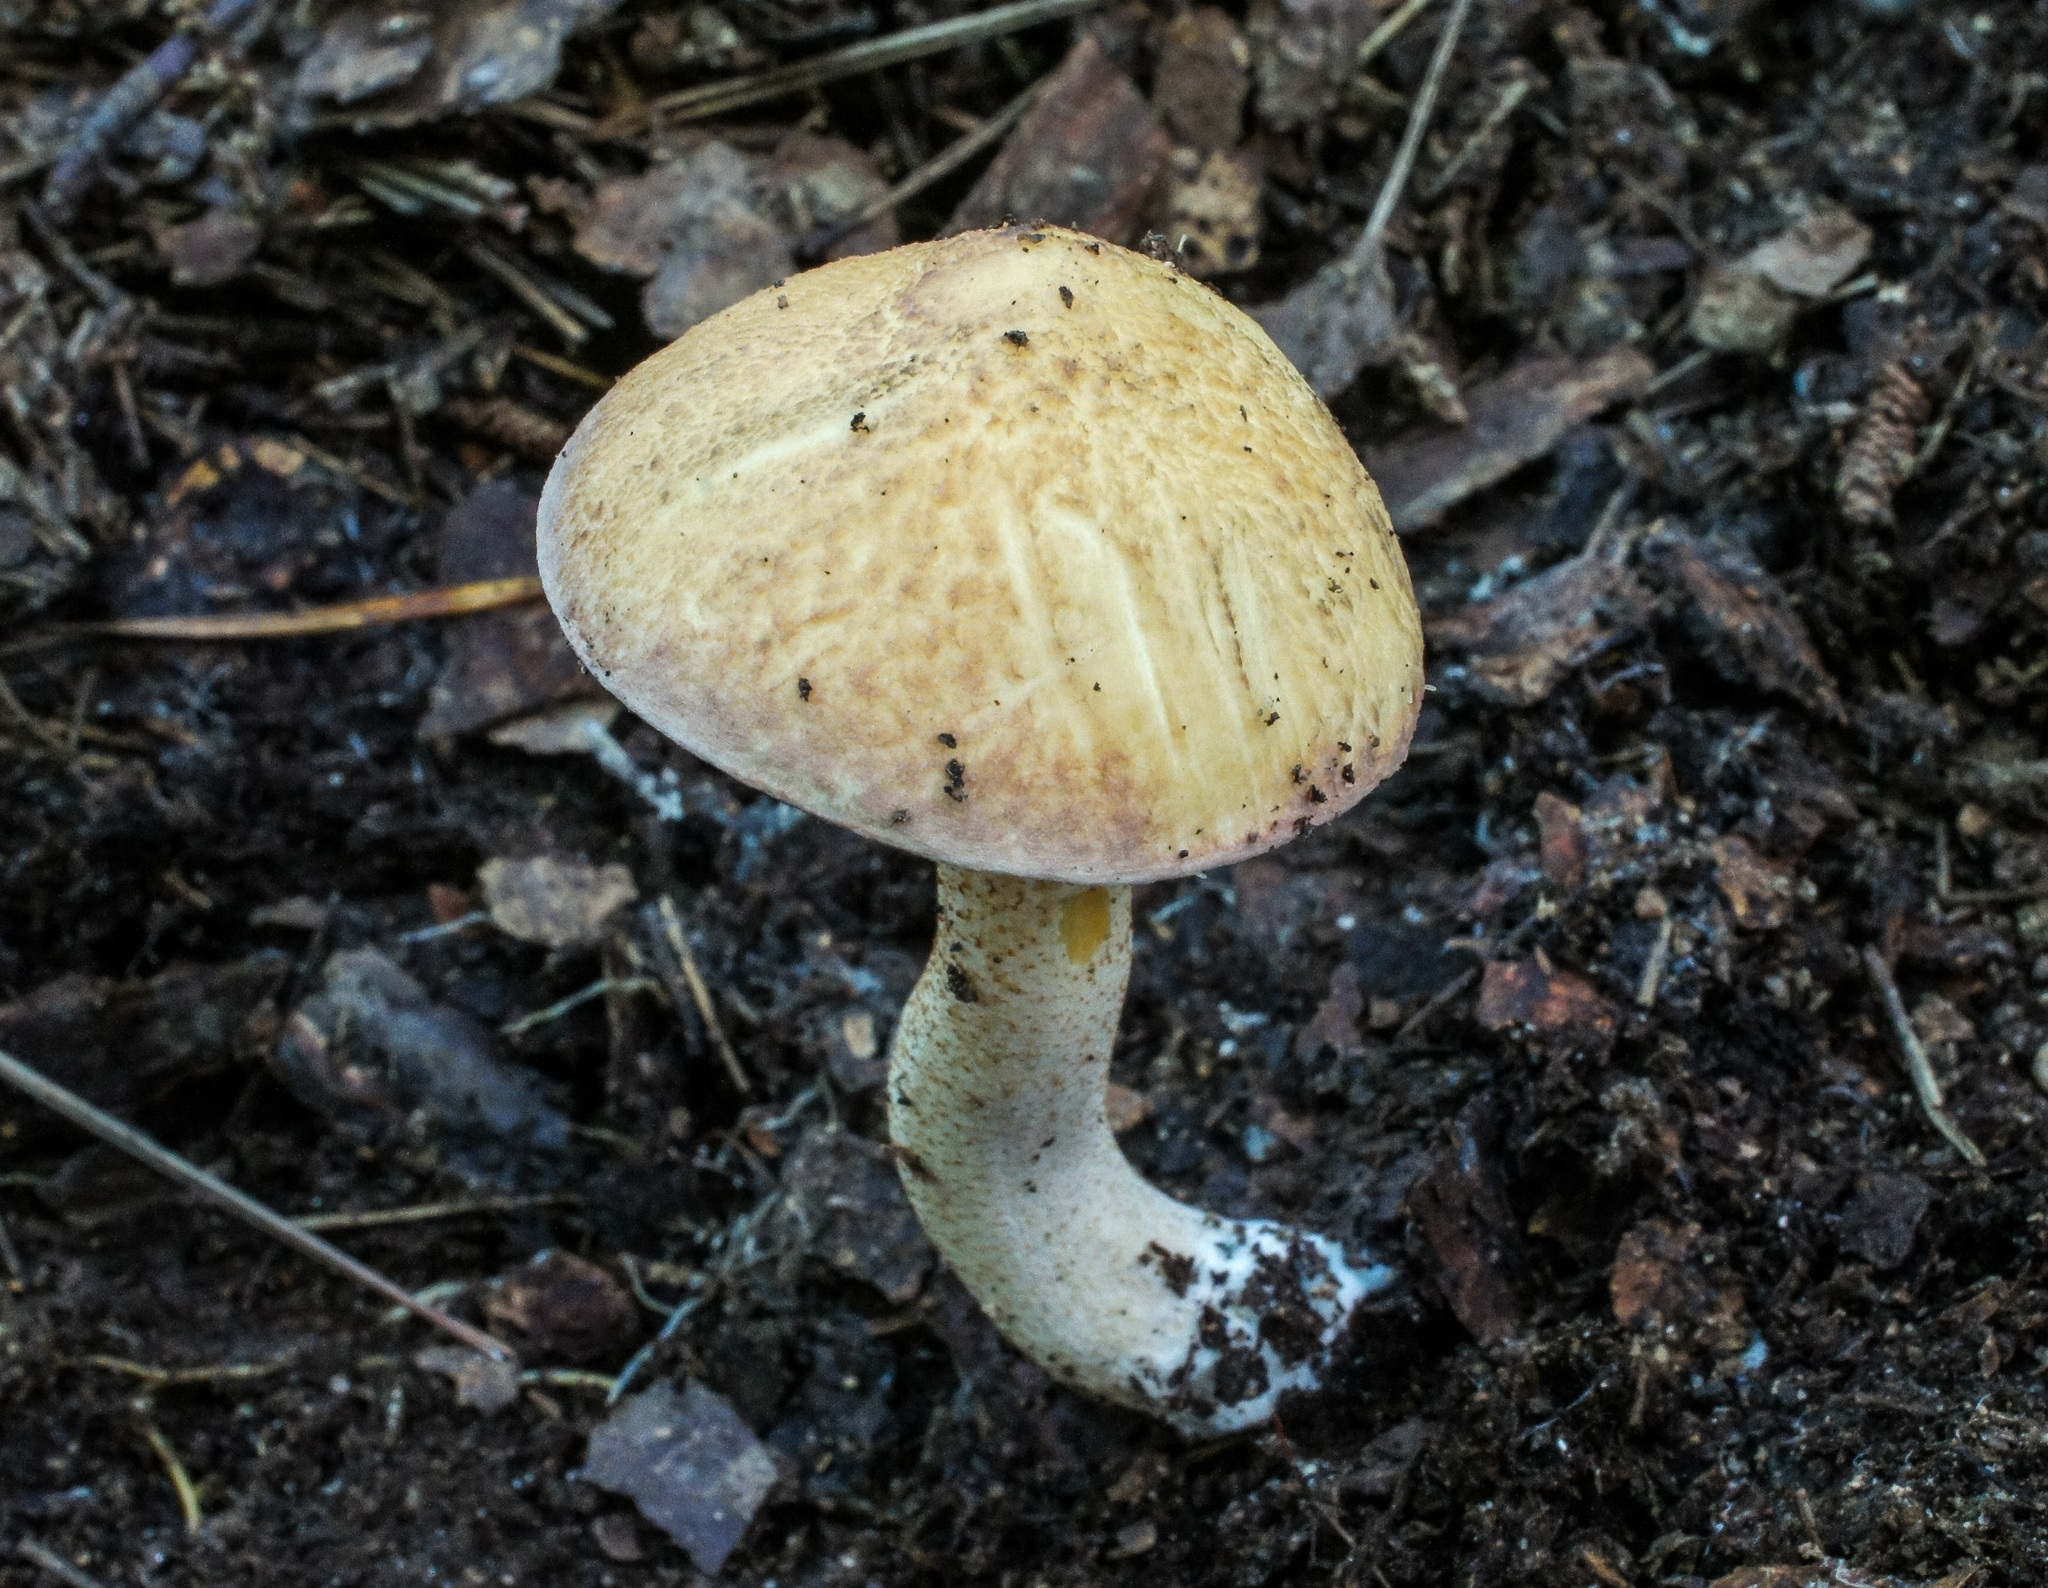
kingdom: Fungi
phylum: Basidiomycota
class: Agaricomycetes
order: Boletales
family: Suillaceae
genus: Suillus
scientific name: Suillus granulatus
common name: Weeping bolete
